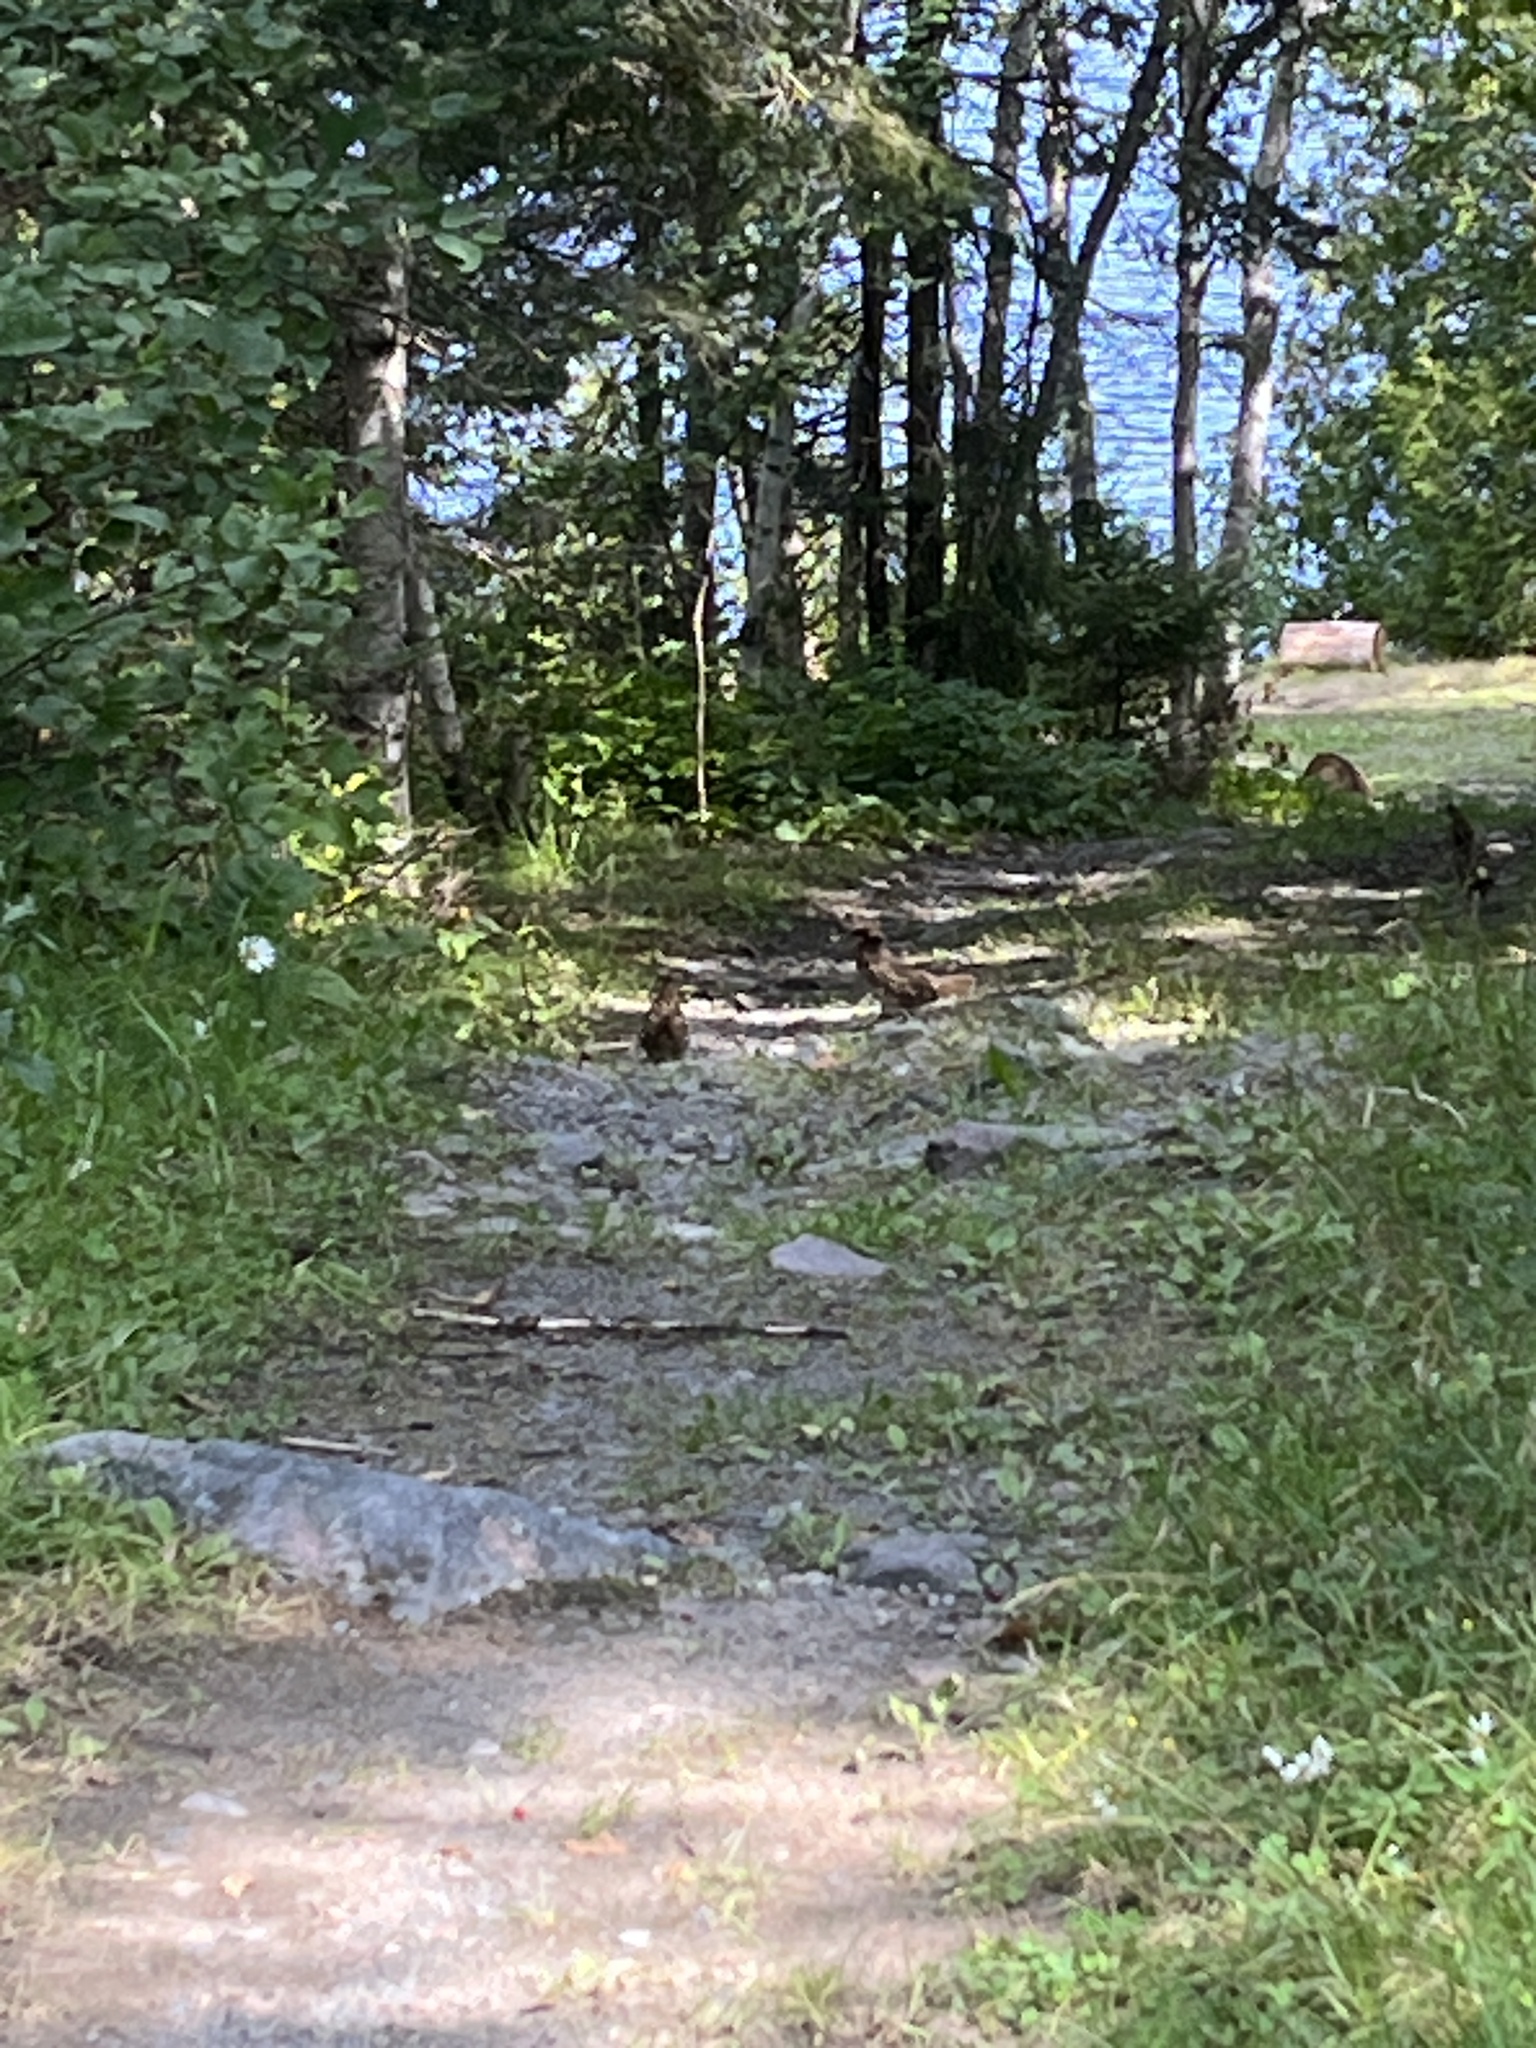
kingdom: Animalia
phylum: Chordata
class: Aves
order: Galliformes
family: Phasianidae
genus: Bonasa
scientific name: Bonasa umbellus
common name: Ruffed grouse
